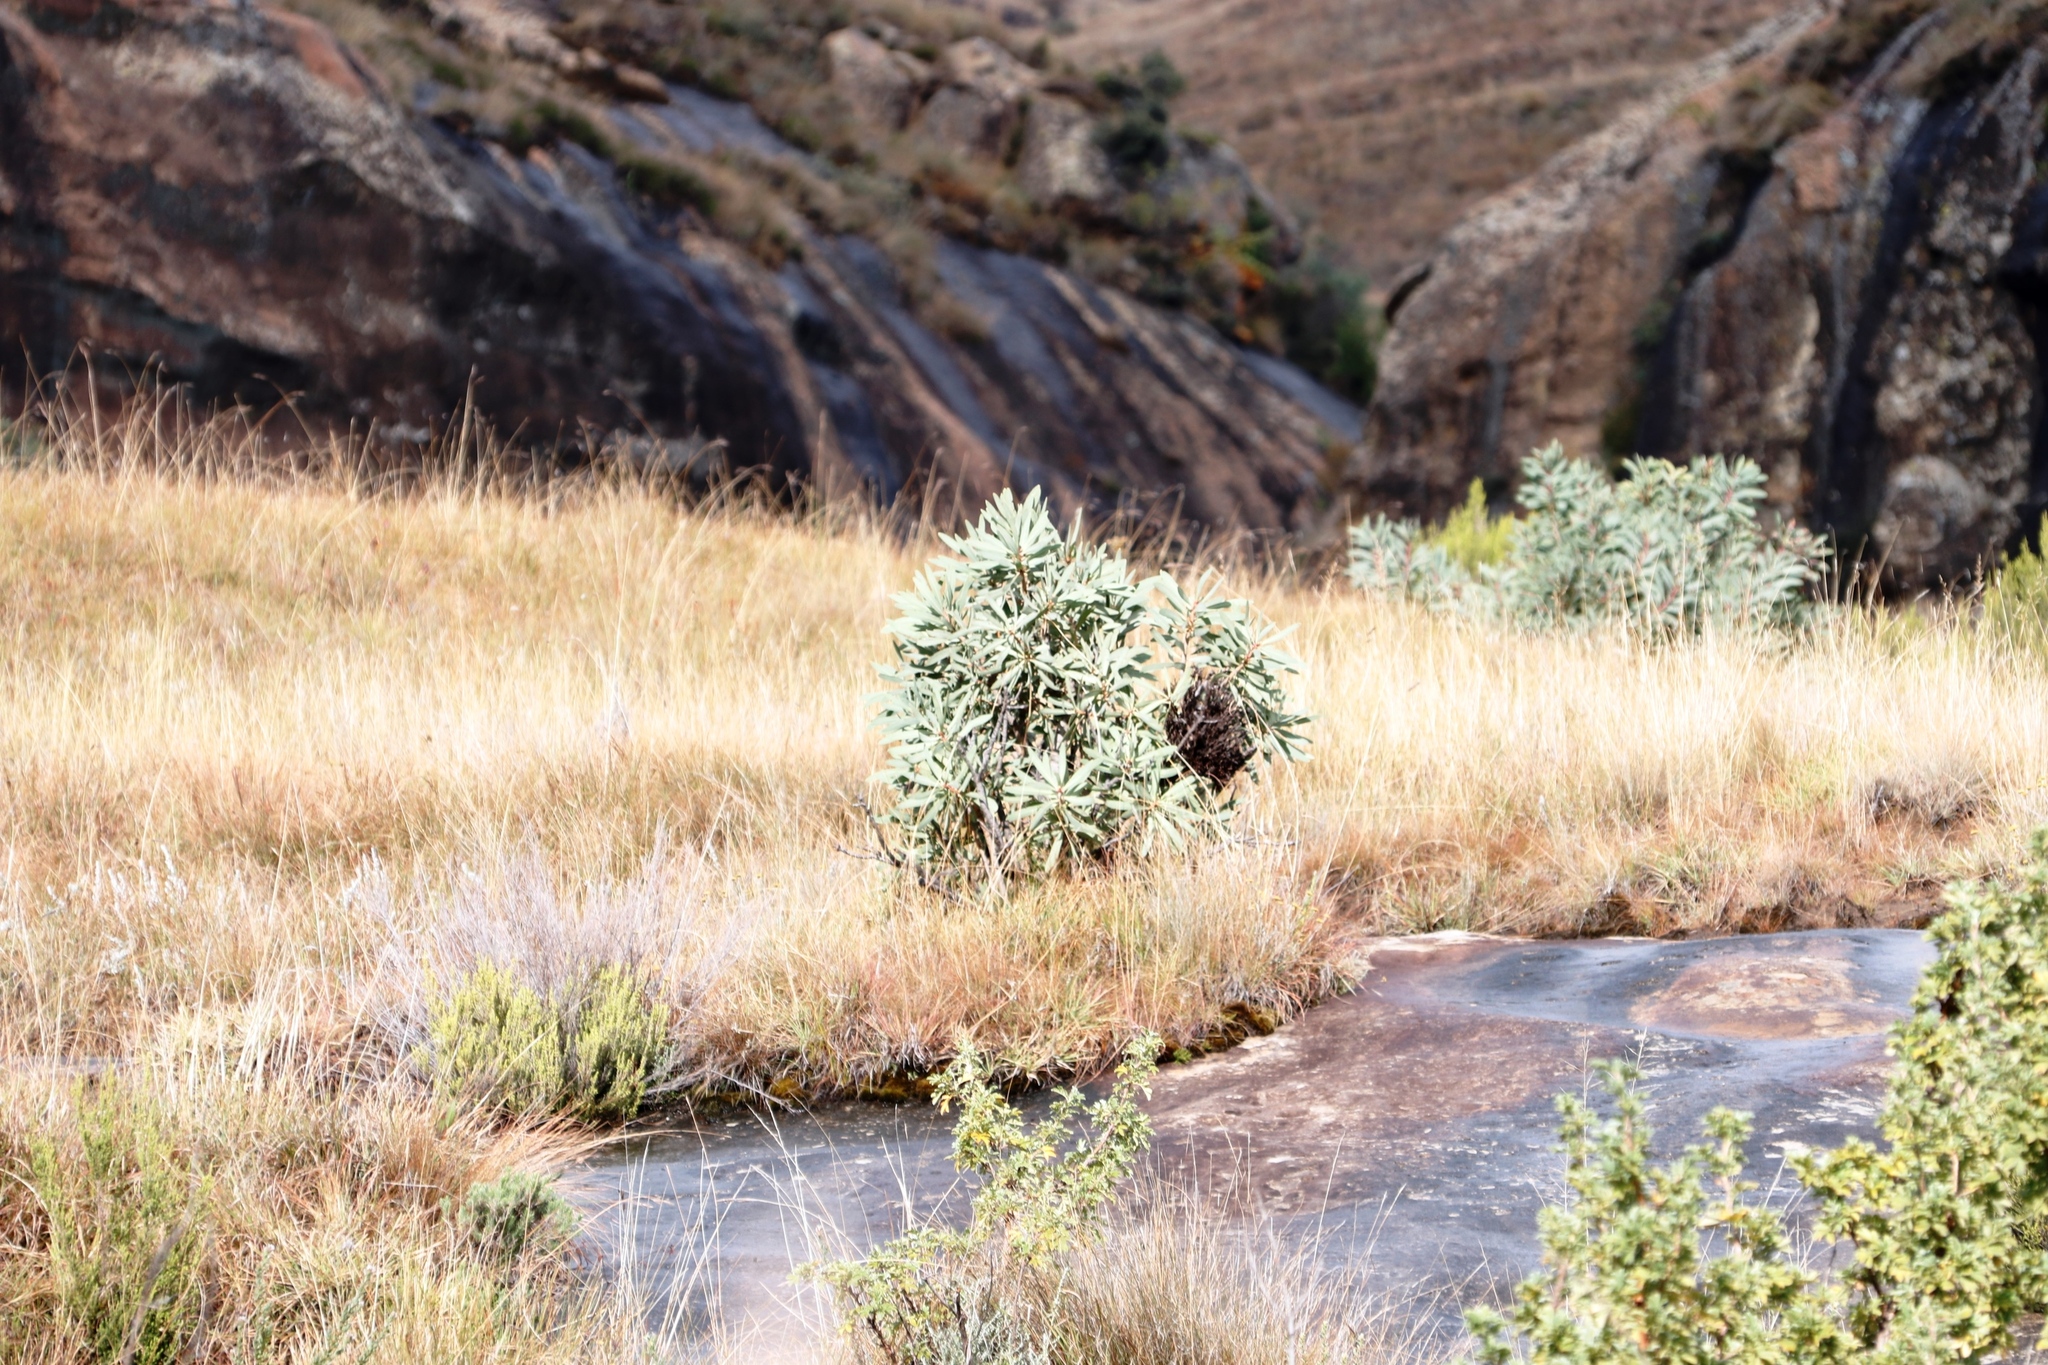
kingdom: Plantae
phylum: Tracheophyta
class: Magnoliopsida
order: Proteales
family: Proteaceae
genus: Protea
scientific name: Protea caffra
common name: Common sugarbush
